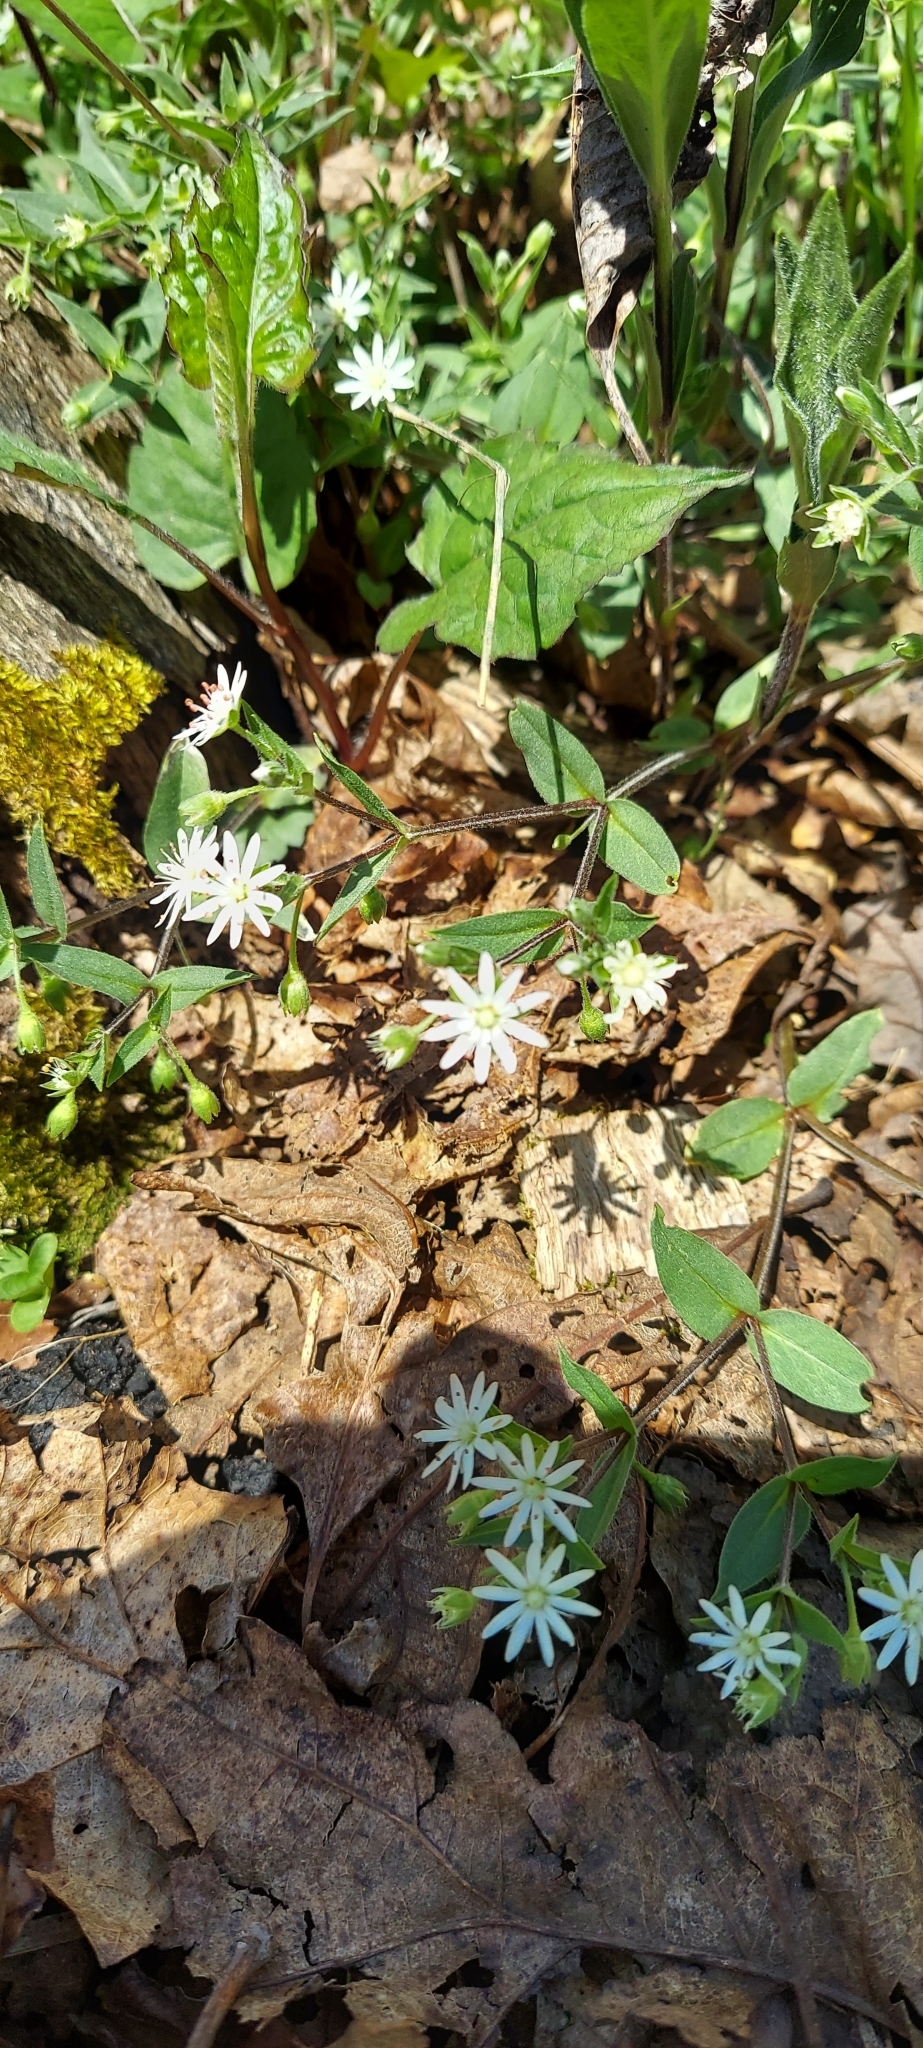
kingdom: Plantae
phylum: Tracheophyta
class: Magnoliopsida
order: Caryophyllales
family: Caryophyllaceae
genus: Stellaria
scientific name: Stellaria pubera
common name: Star chickweed
